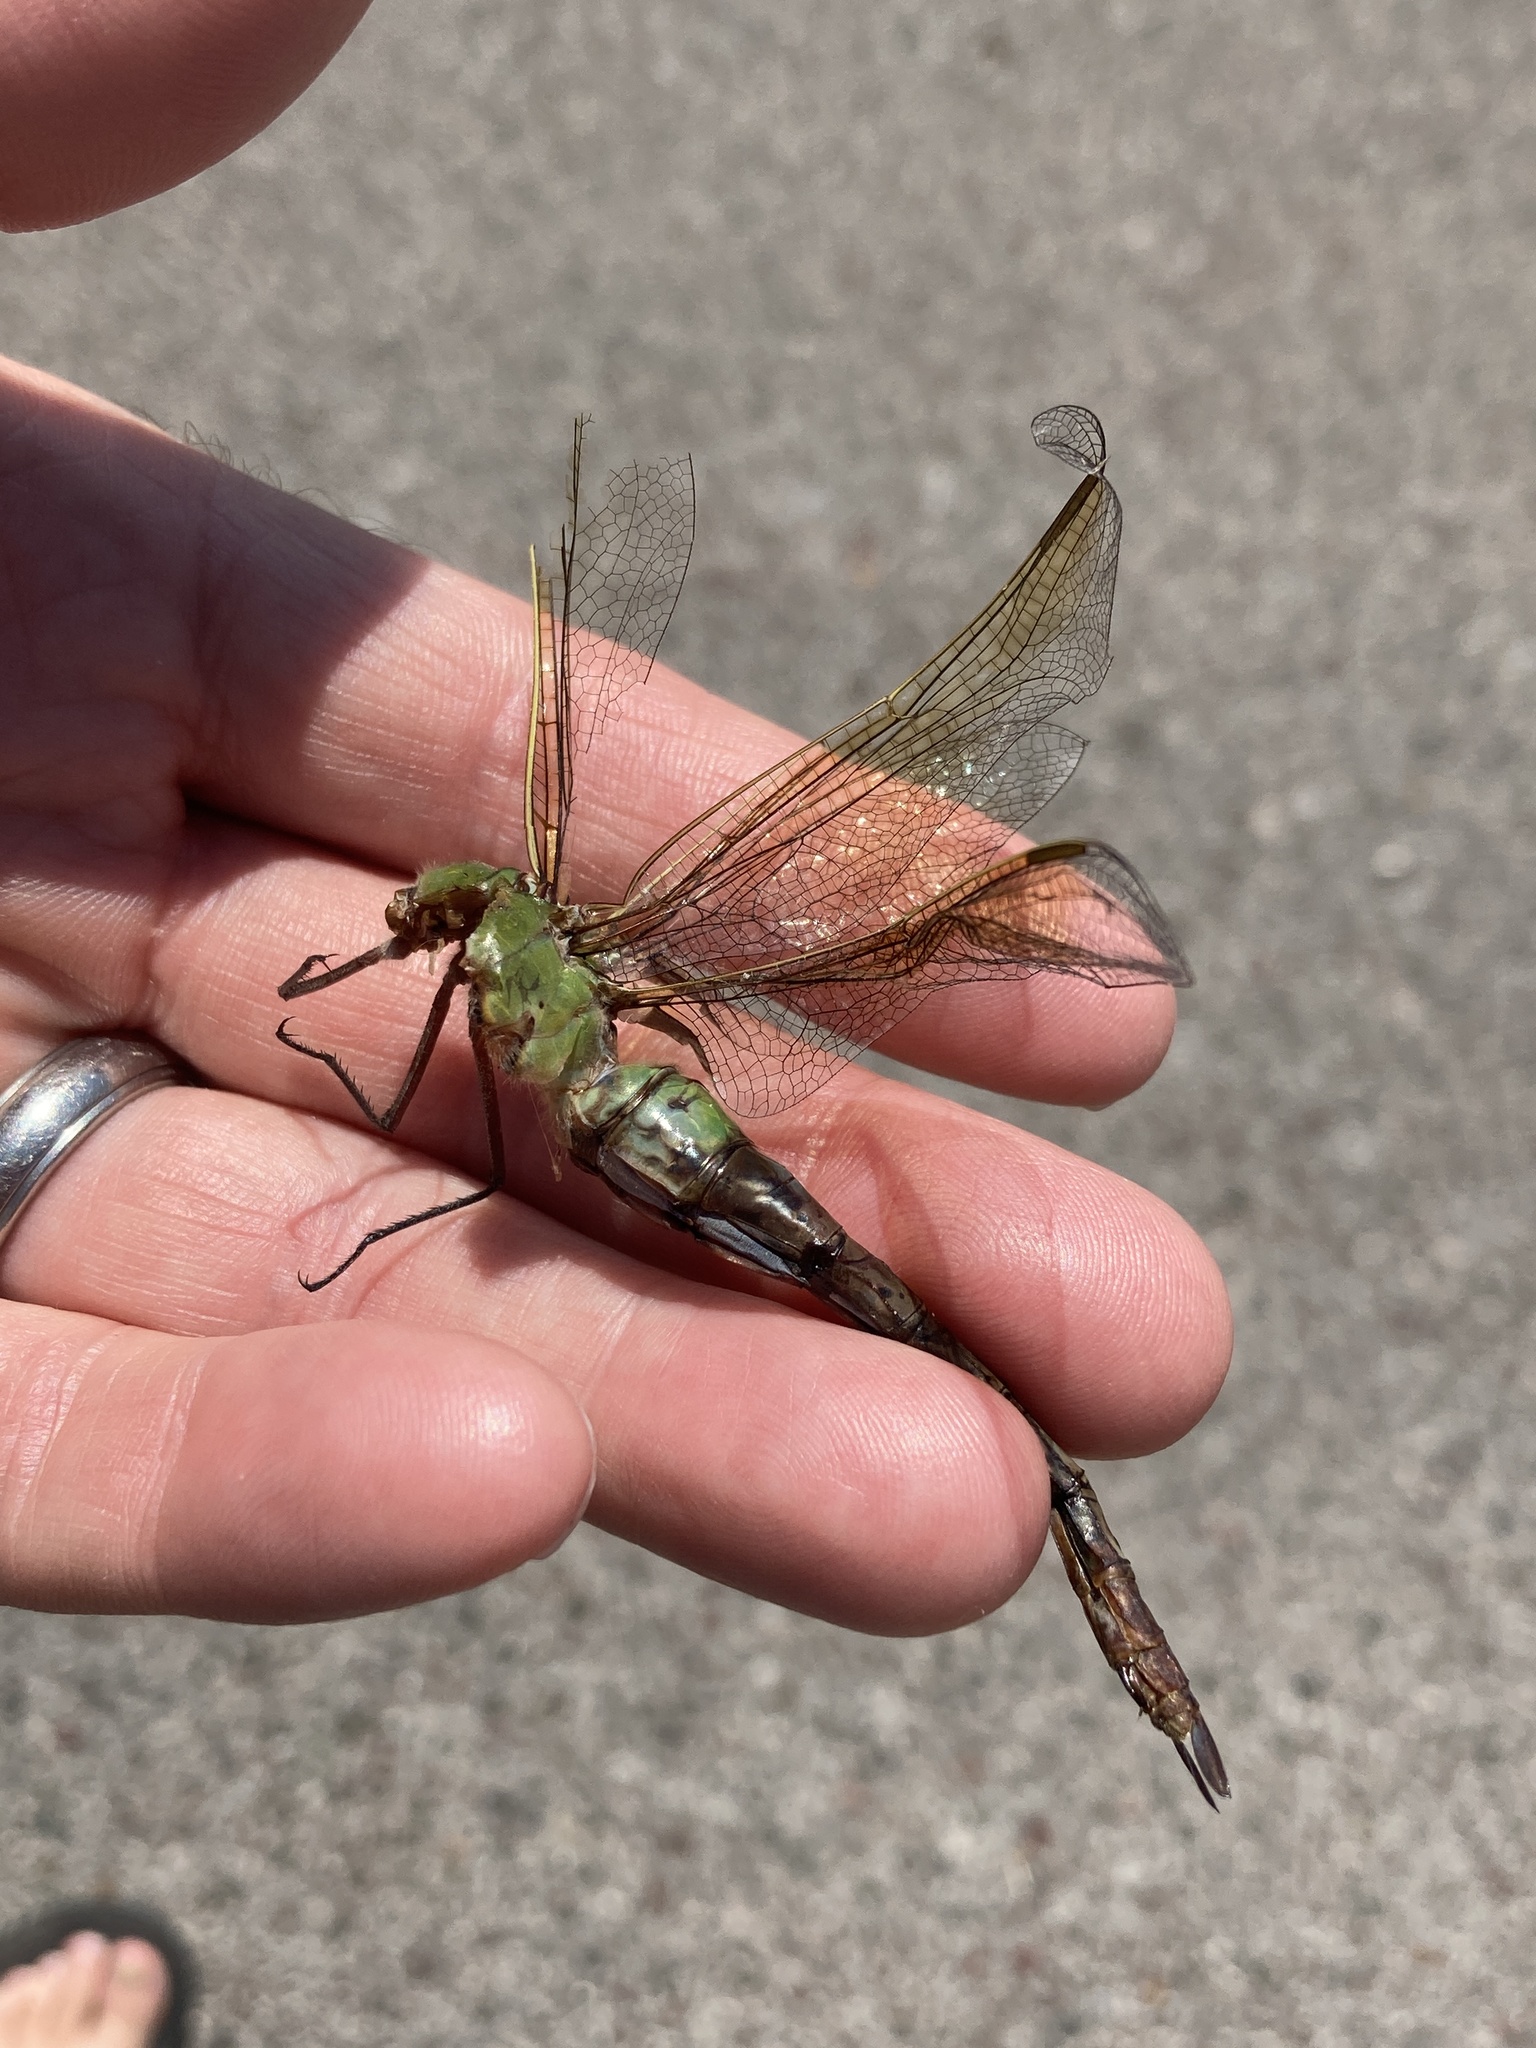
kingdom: Animalia
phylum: Arthropoda
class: Insecta
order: Odonata
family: Aeshnidae
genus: Anax
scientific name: Anax junius
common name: Common green darner
